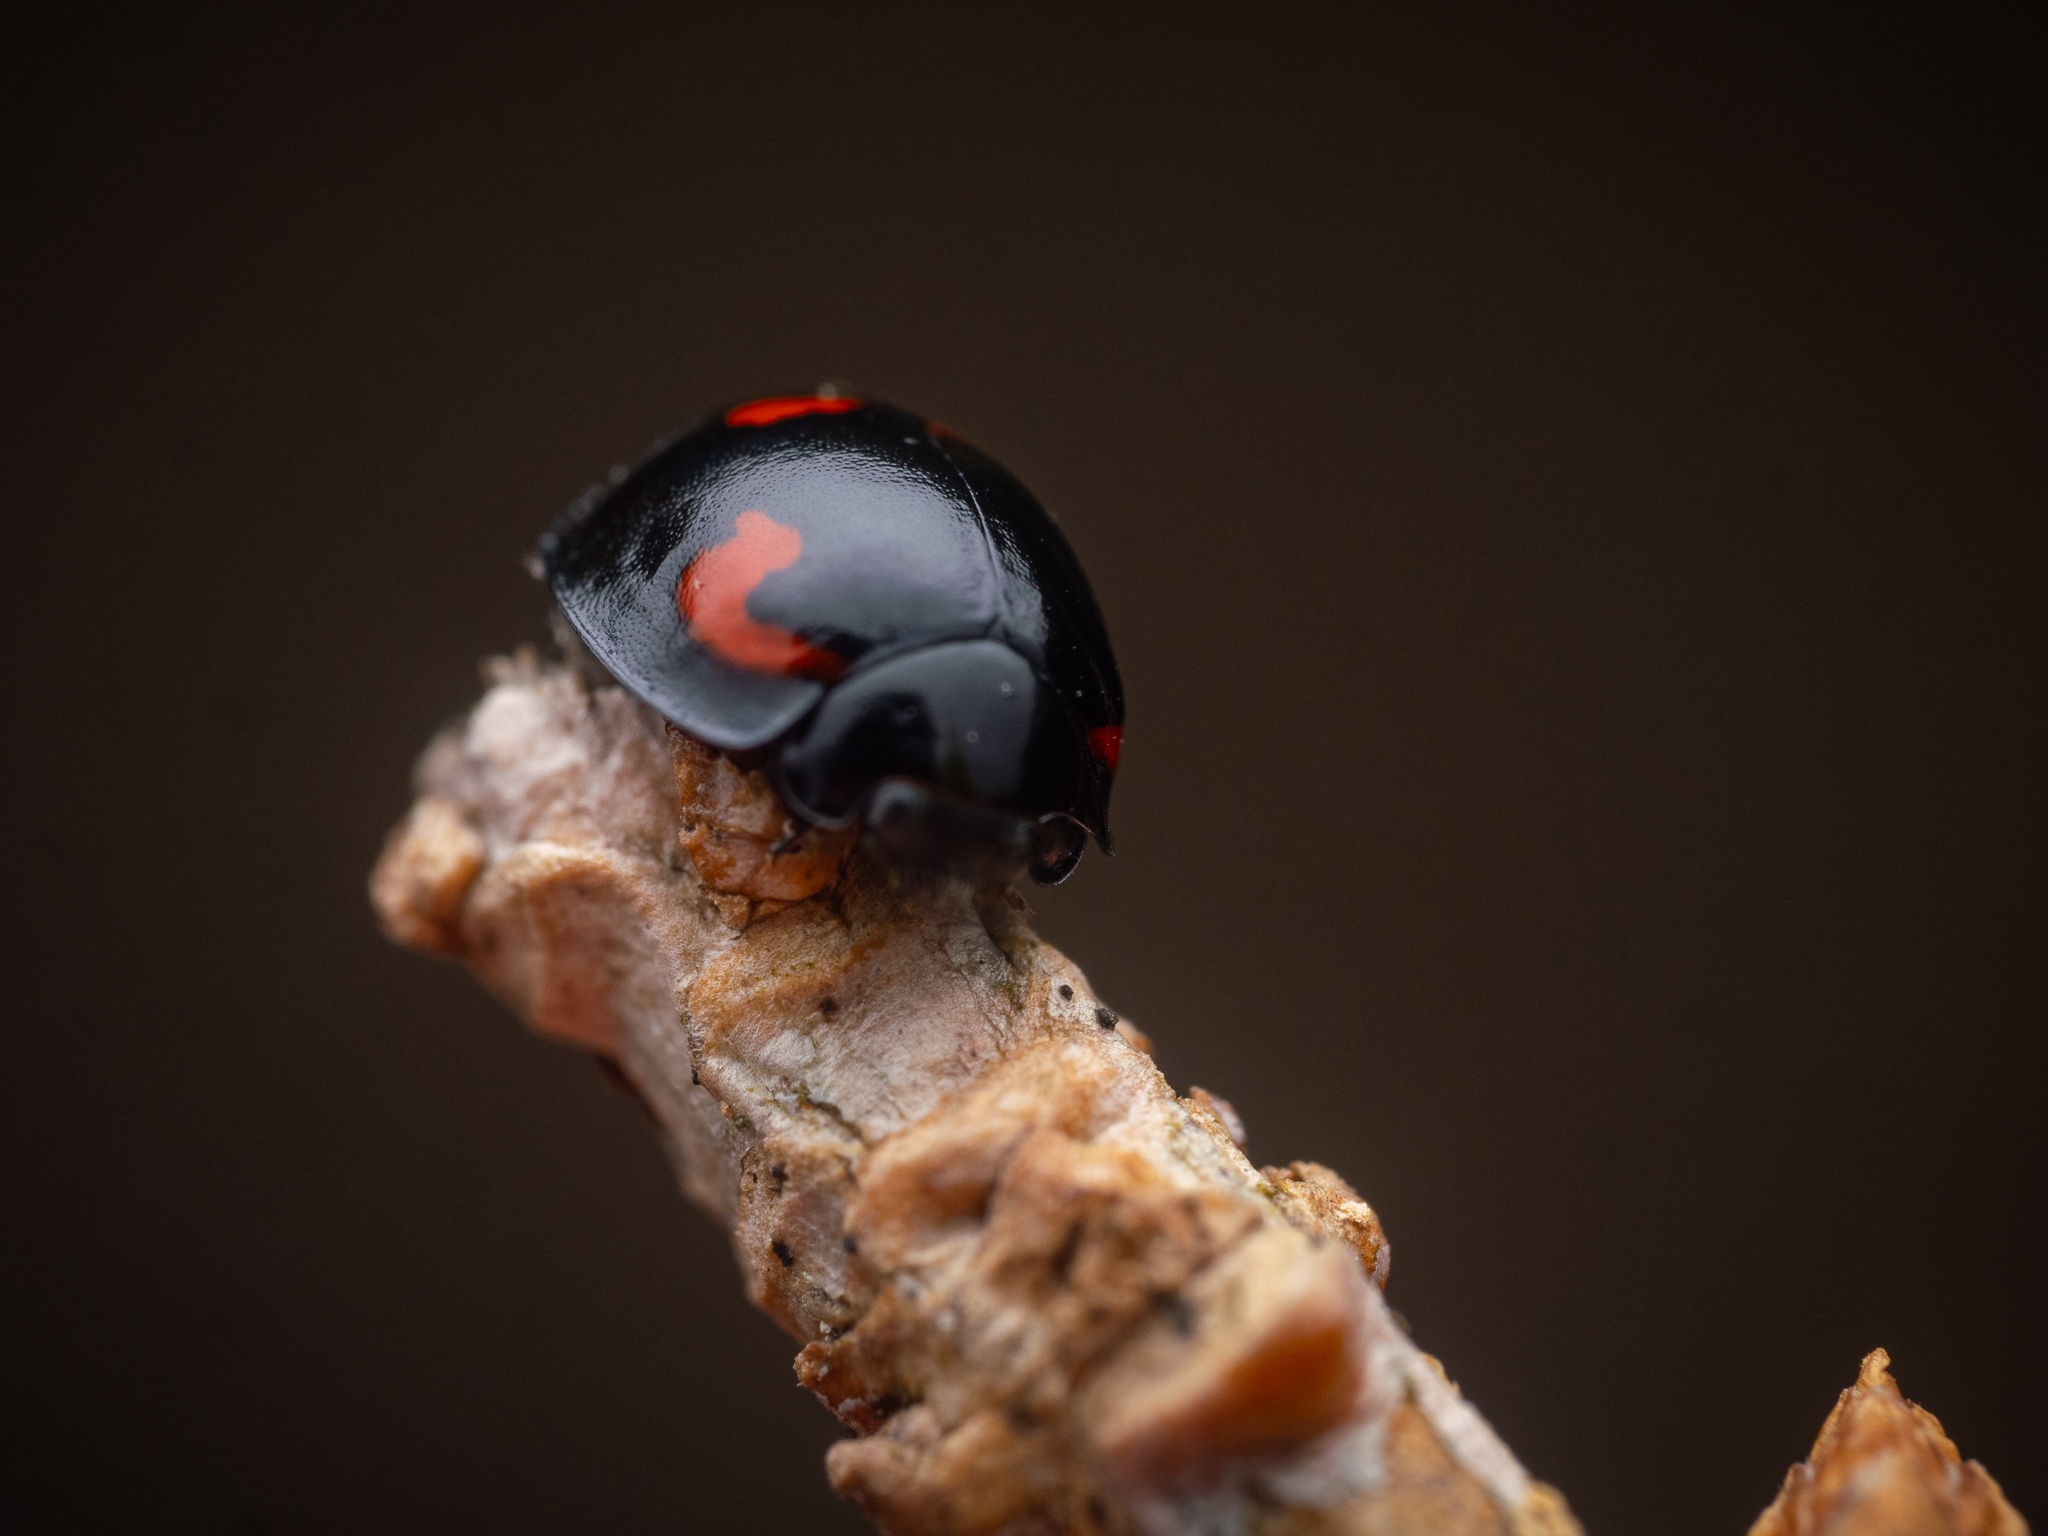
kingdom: Animalia
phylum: Arthropoda
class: Insecta
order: Coleoptera
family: Coccinellidae
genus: Brumus
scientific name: Brumus quadripustulatus
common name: Ladybird beetle
